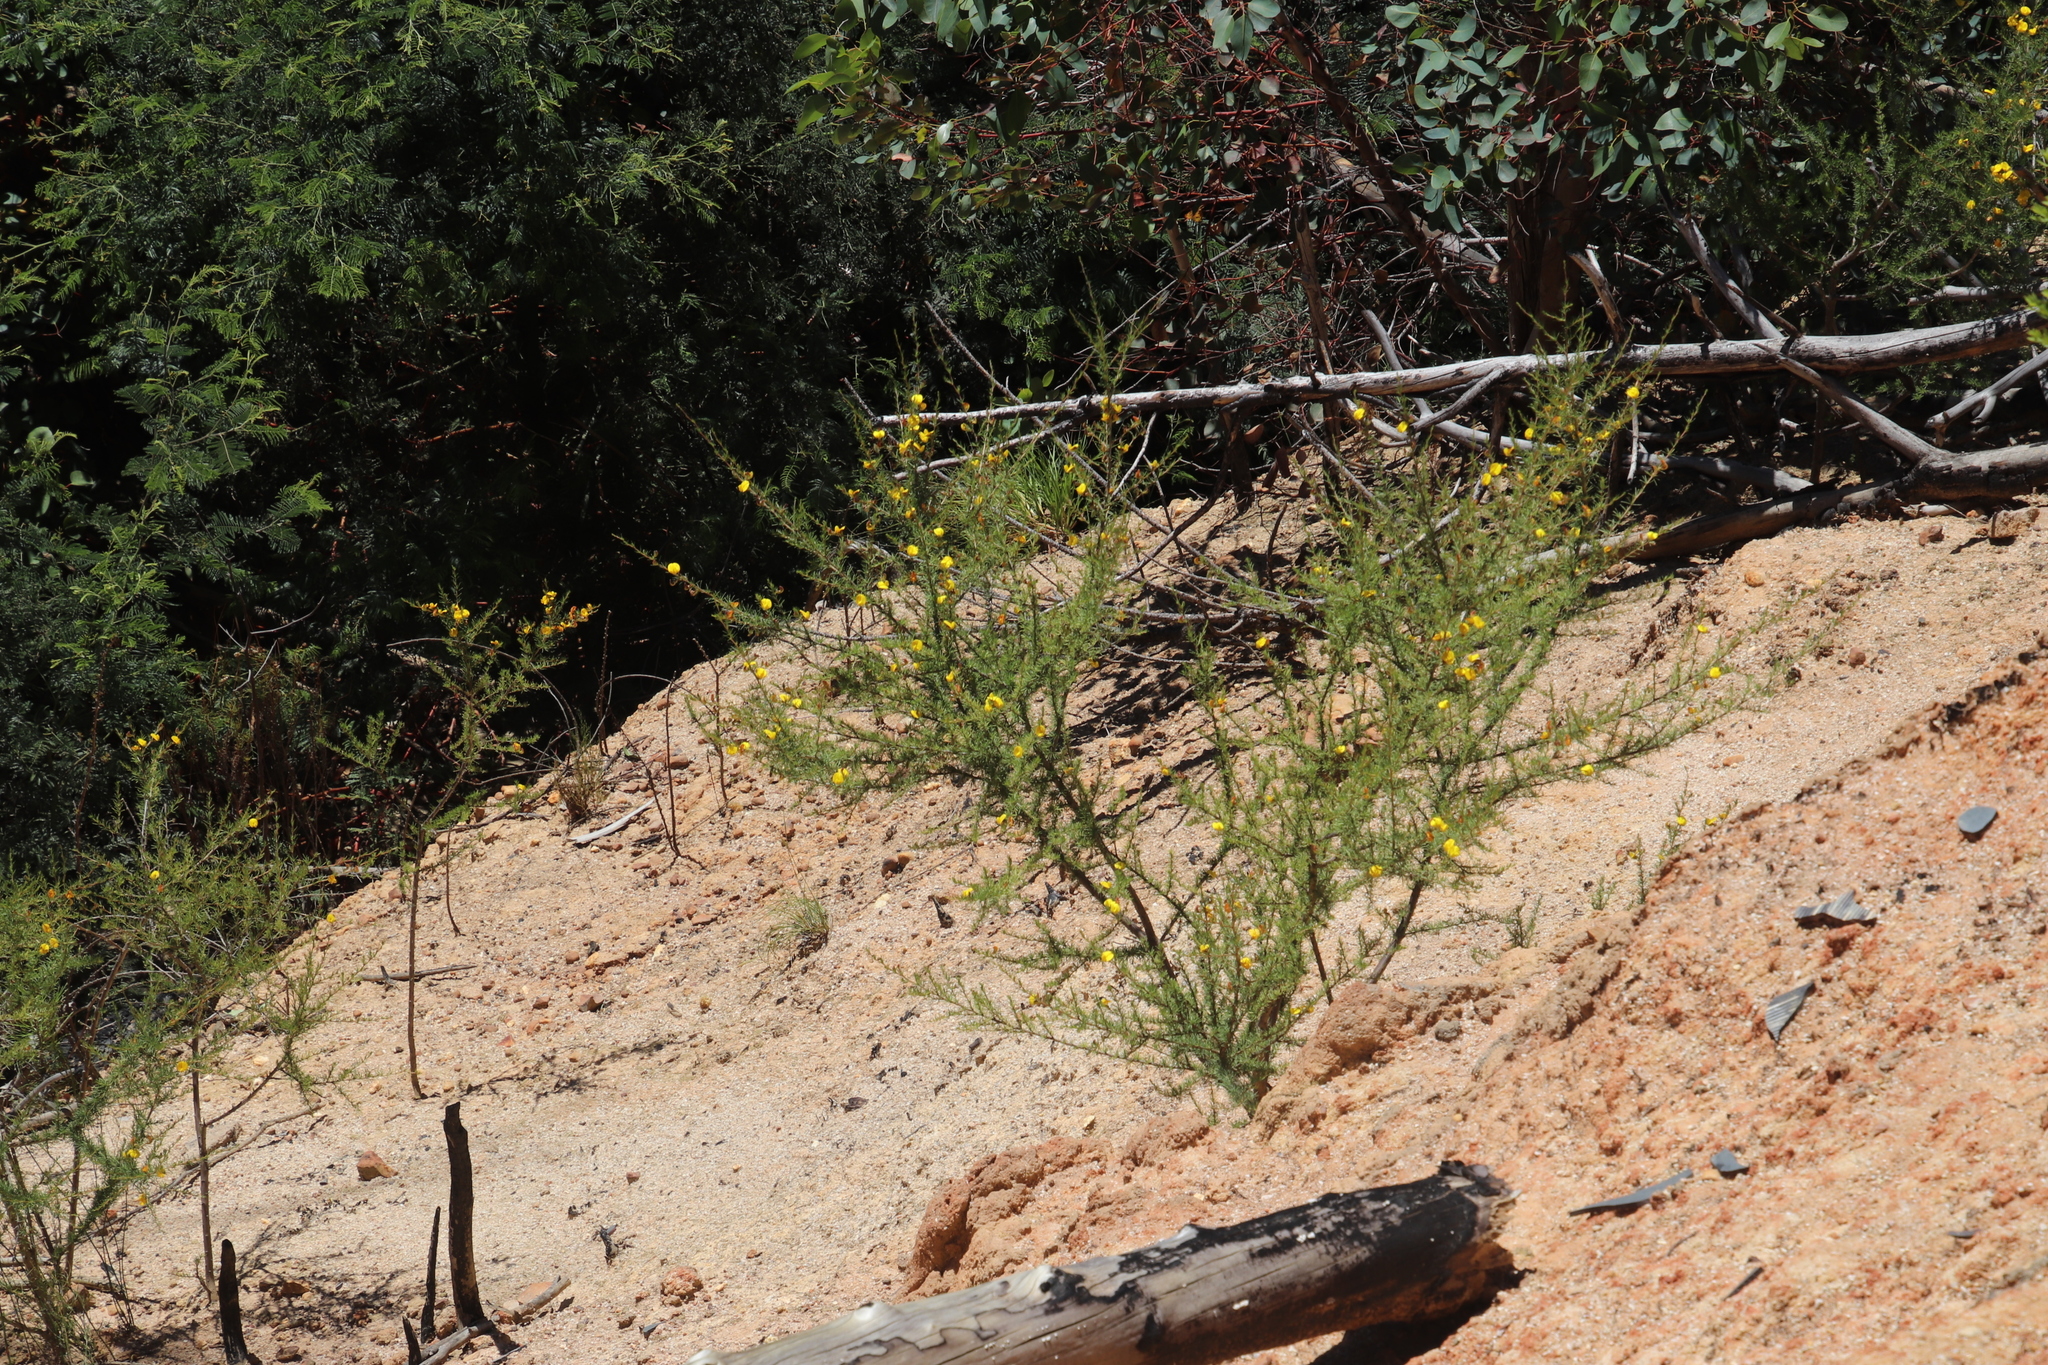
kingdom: Plantae
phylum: Tracheophyta
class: Magnoliopsida
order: Fabales
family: Fabaceae
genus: Aspalathus
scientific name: Aspalathus uniflora
